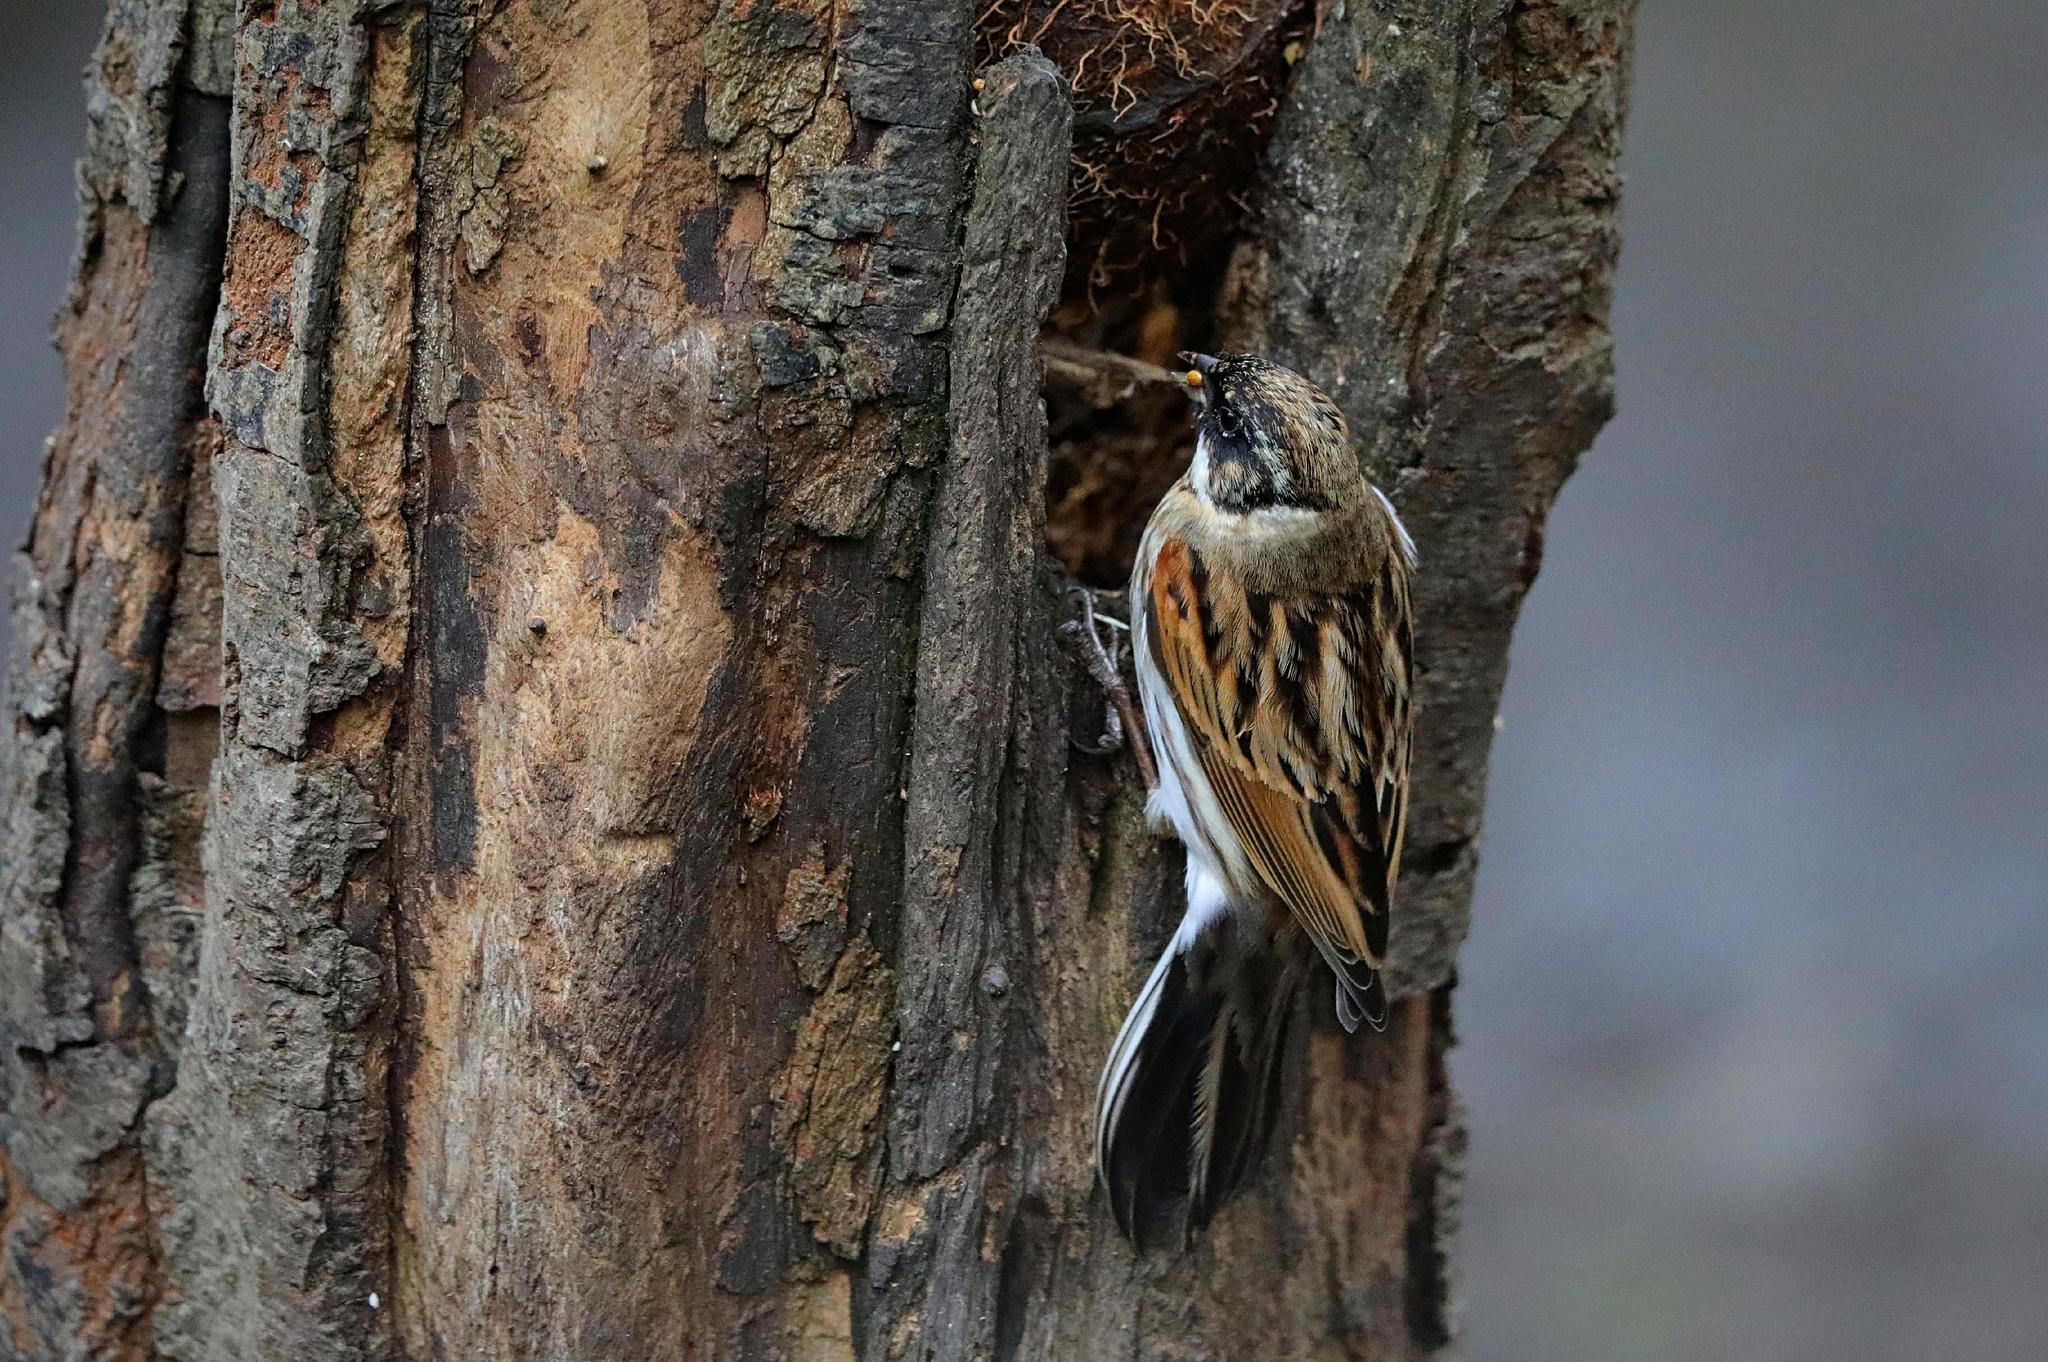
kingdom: Animalia
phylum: Chordata
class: Aves
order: Passeriformes
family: Emberizidae
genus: Emberiza
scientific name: Emberiza schoeniclus
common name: Reed bunting
